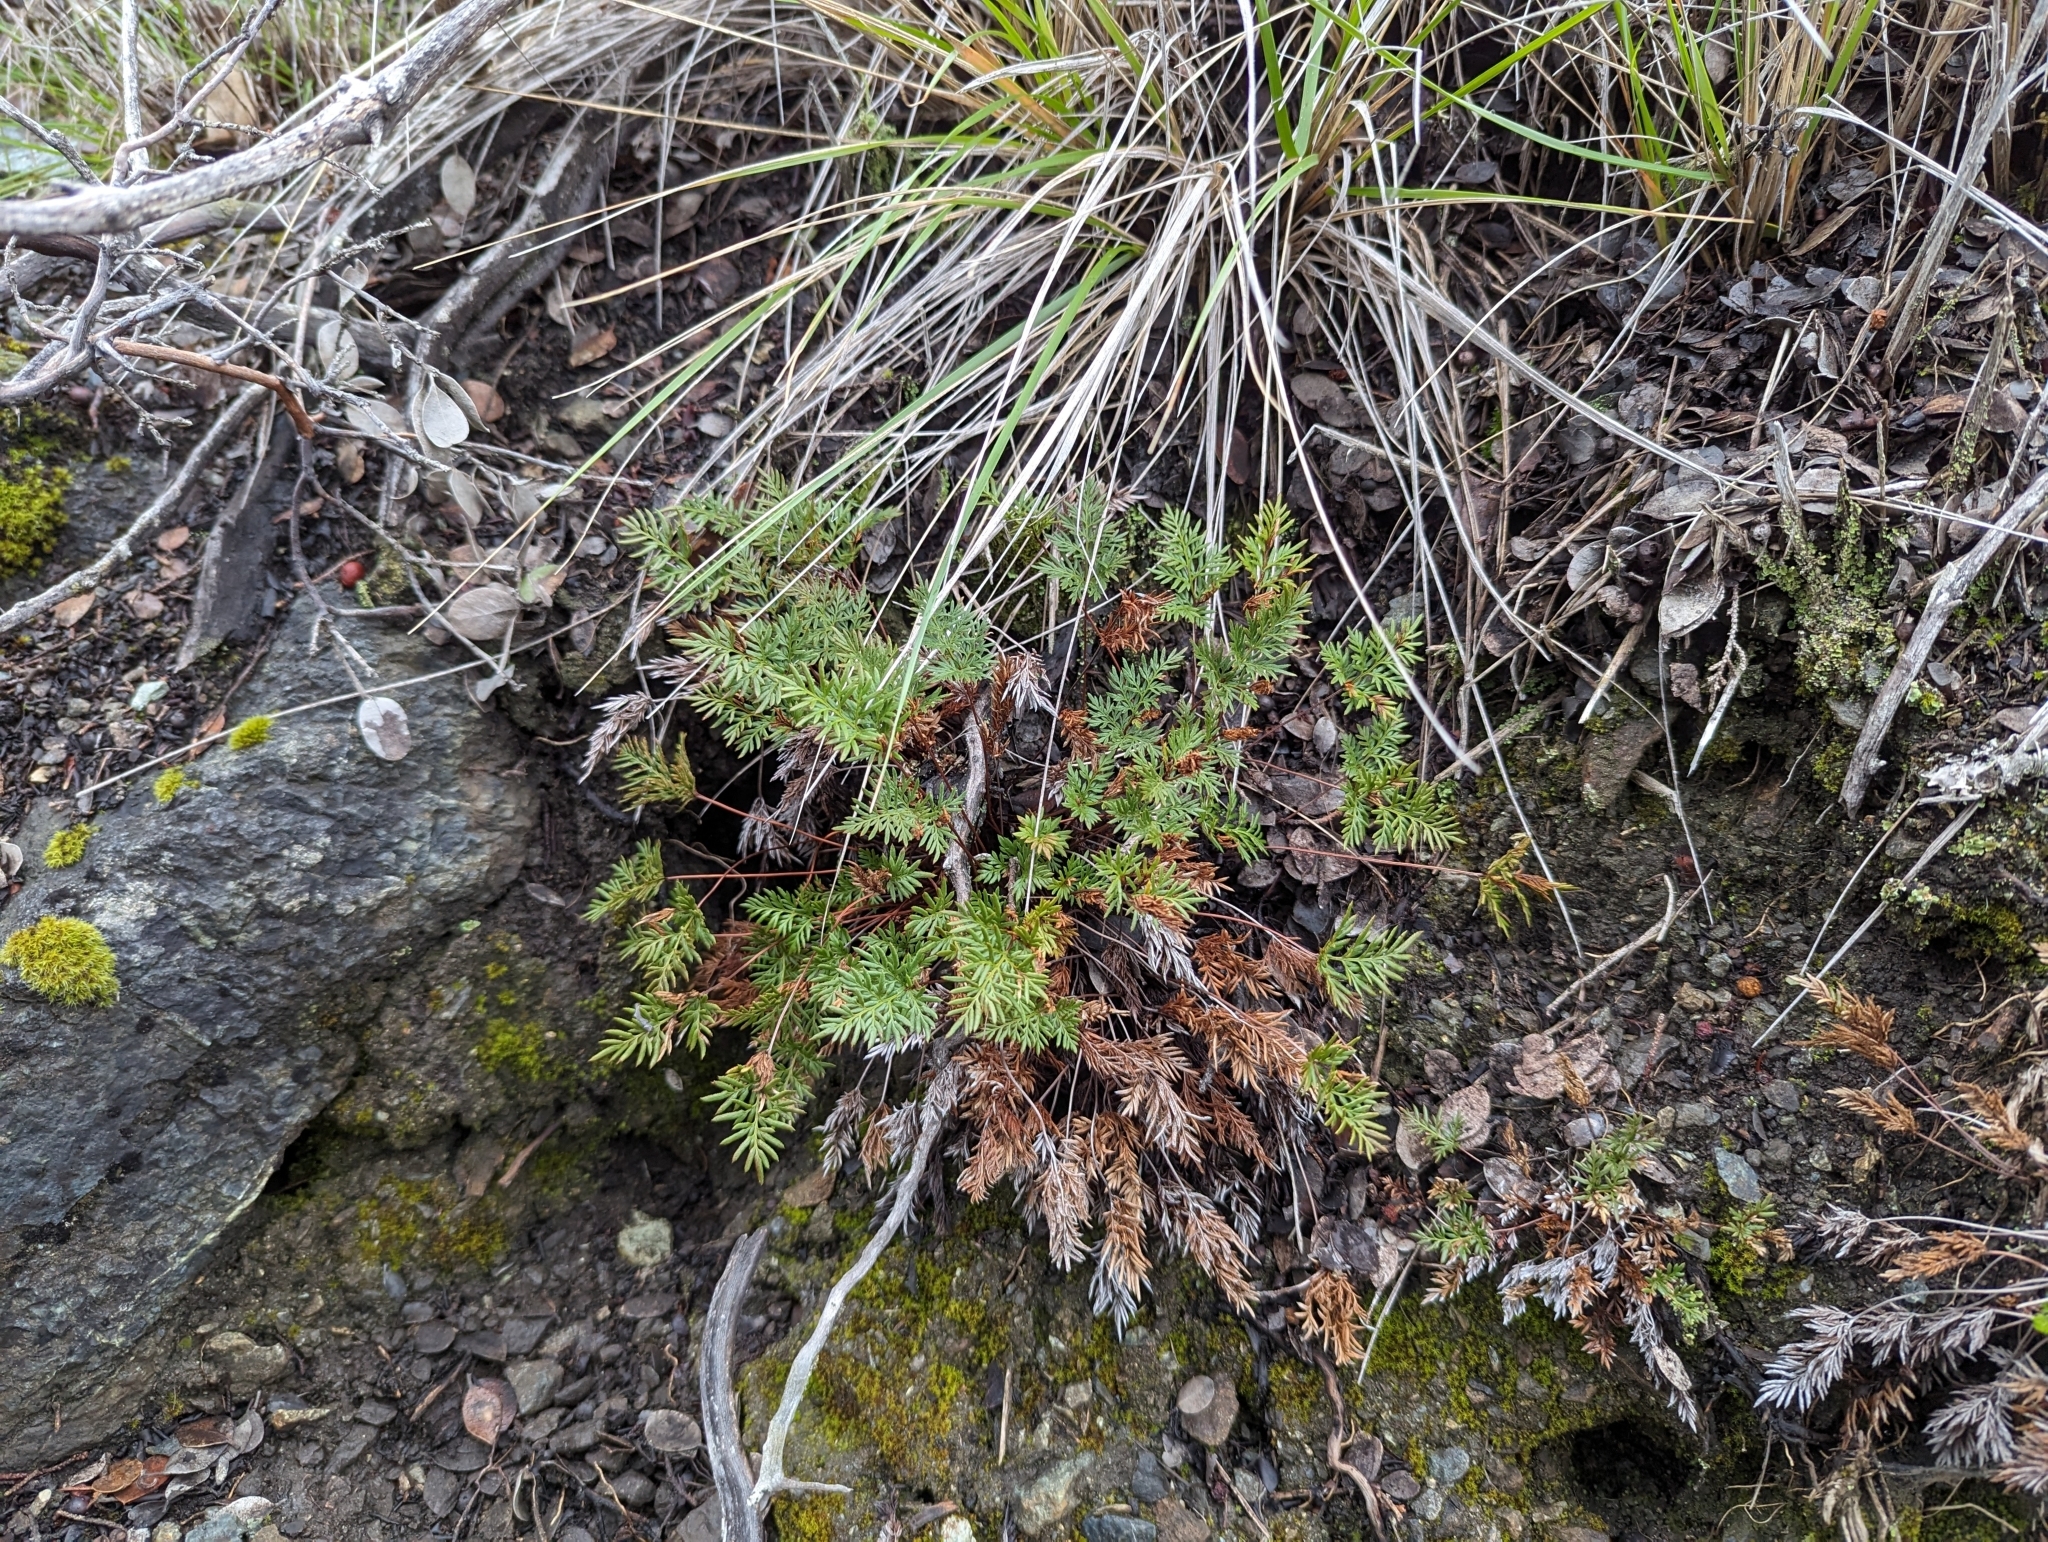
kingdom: Plantae
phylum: Tracheophyta
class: Polypodiopsida
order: Polypodiales
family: Pteridaceae
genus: Aspidotis
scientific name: Aspidotis densa
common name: Indian's dream
